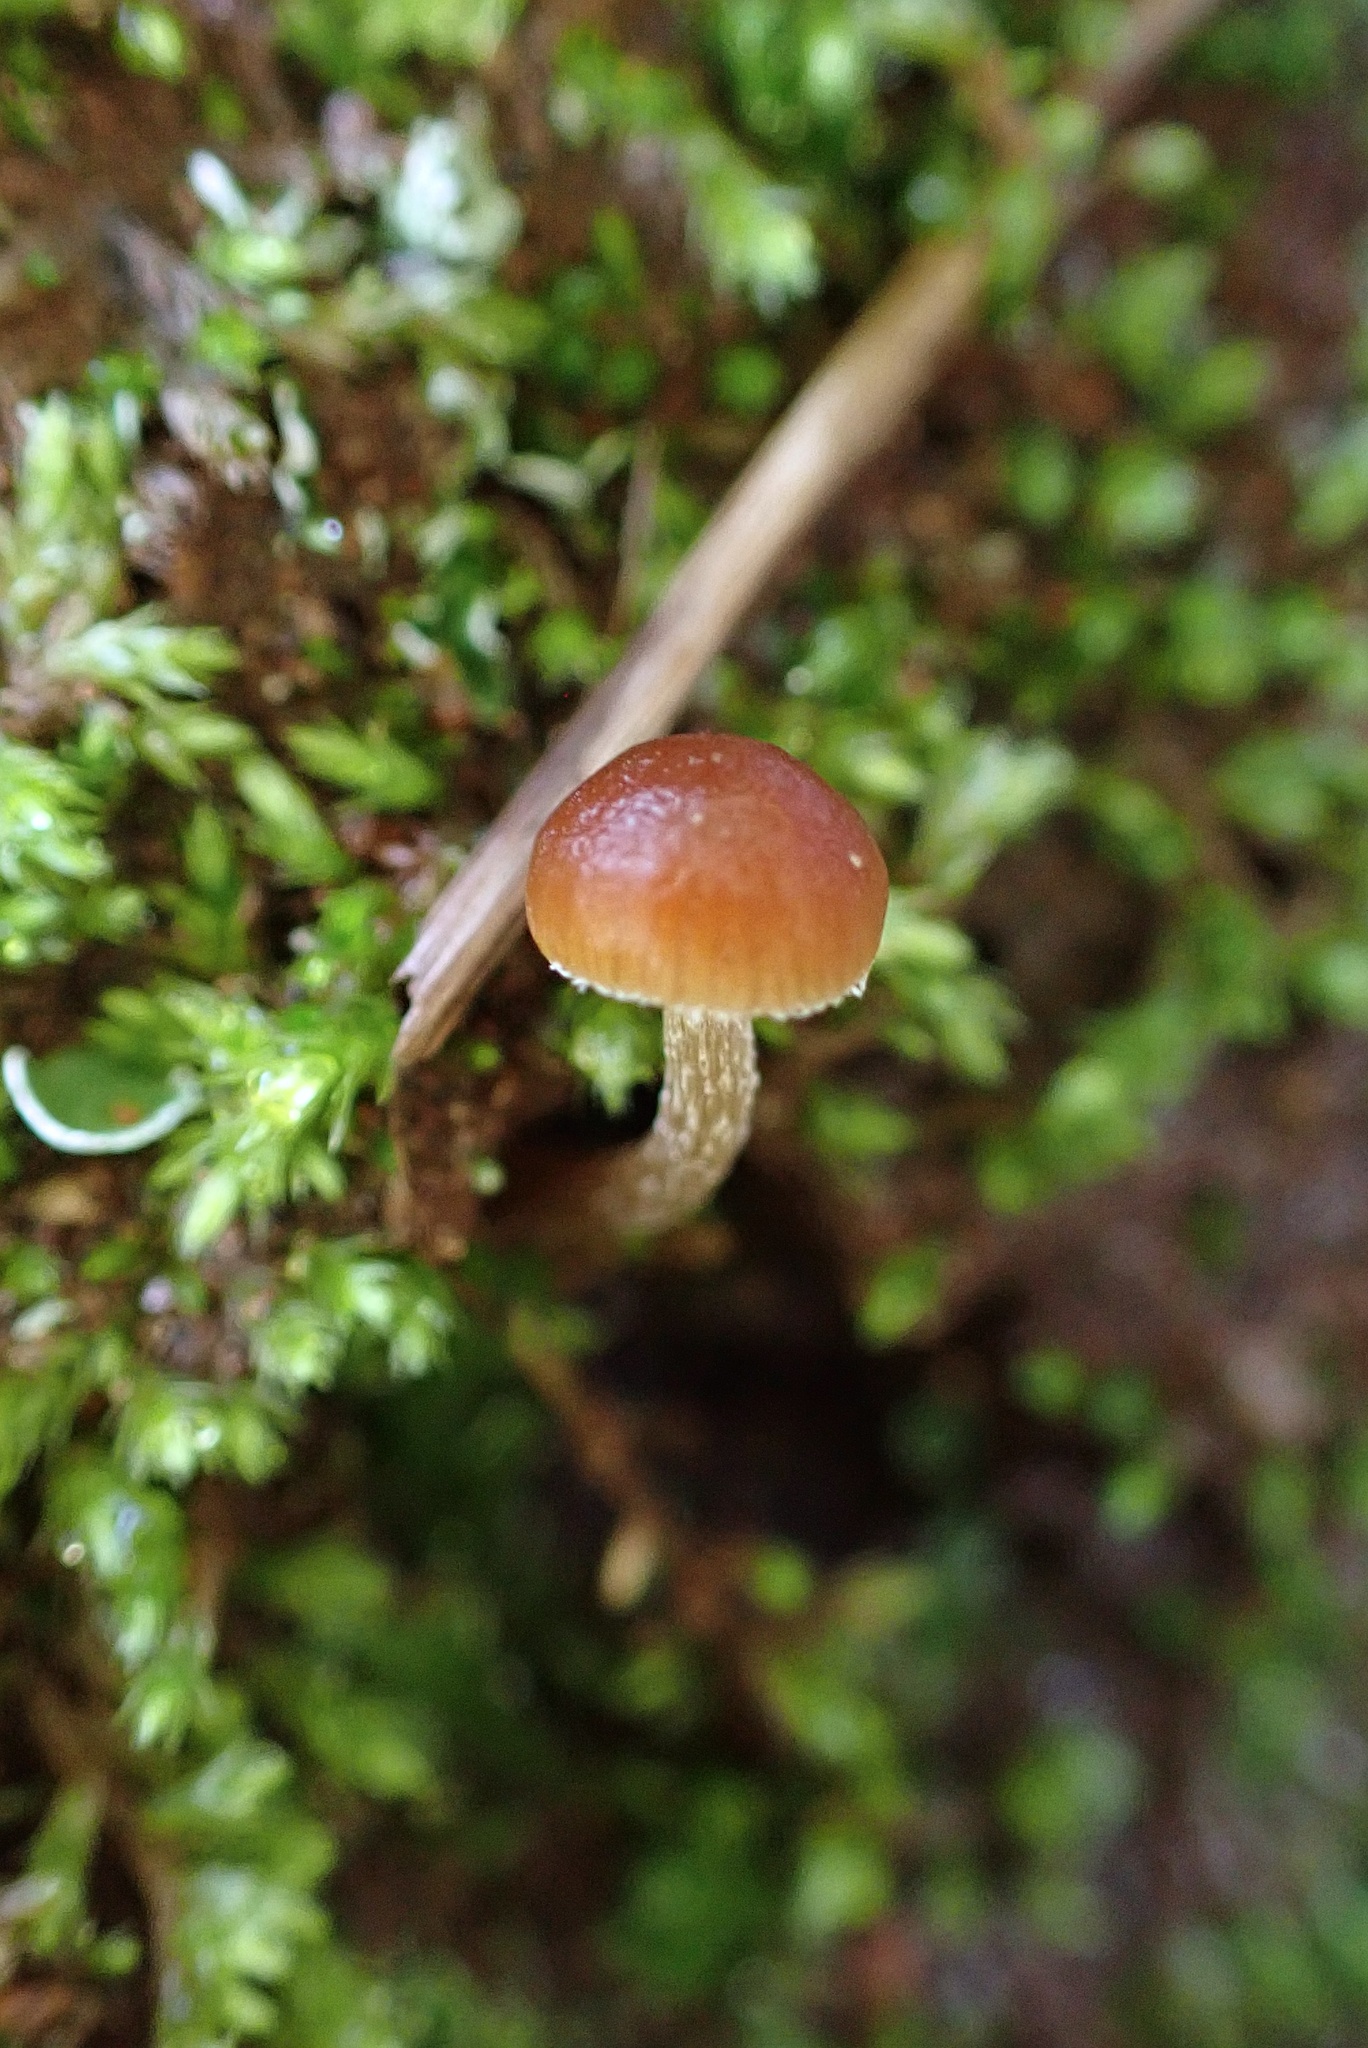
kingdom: Fungi
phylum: Basidiomycota
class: Agaricomycetes
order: Agaricales
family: Strophariaceae
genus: Deconica
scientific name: Deconica montana
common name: Mountain moss deconica
